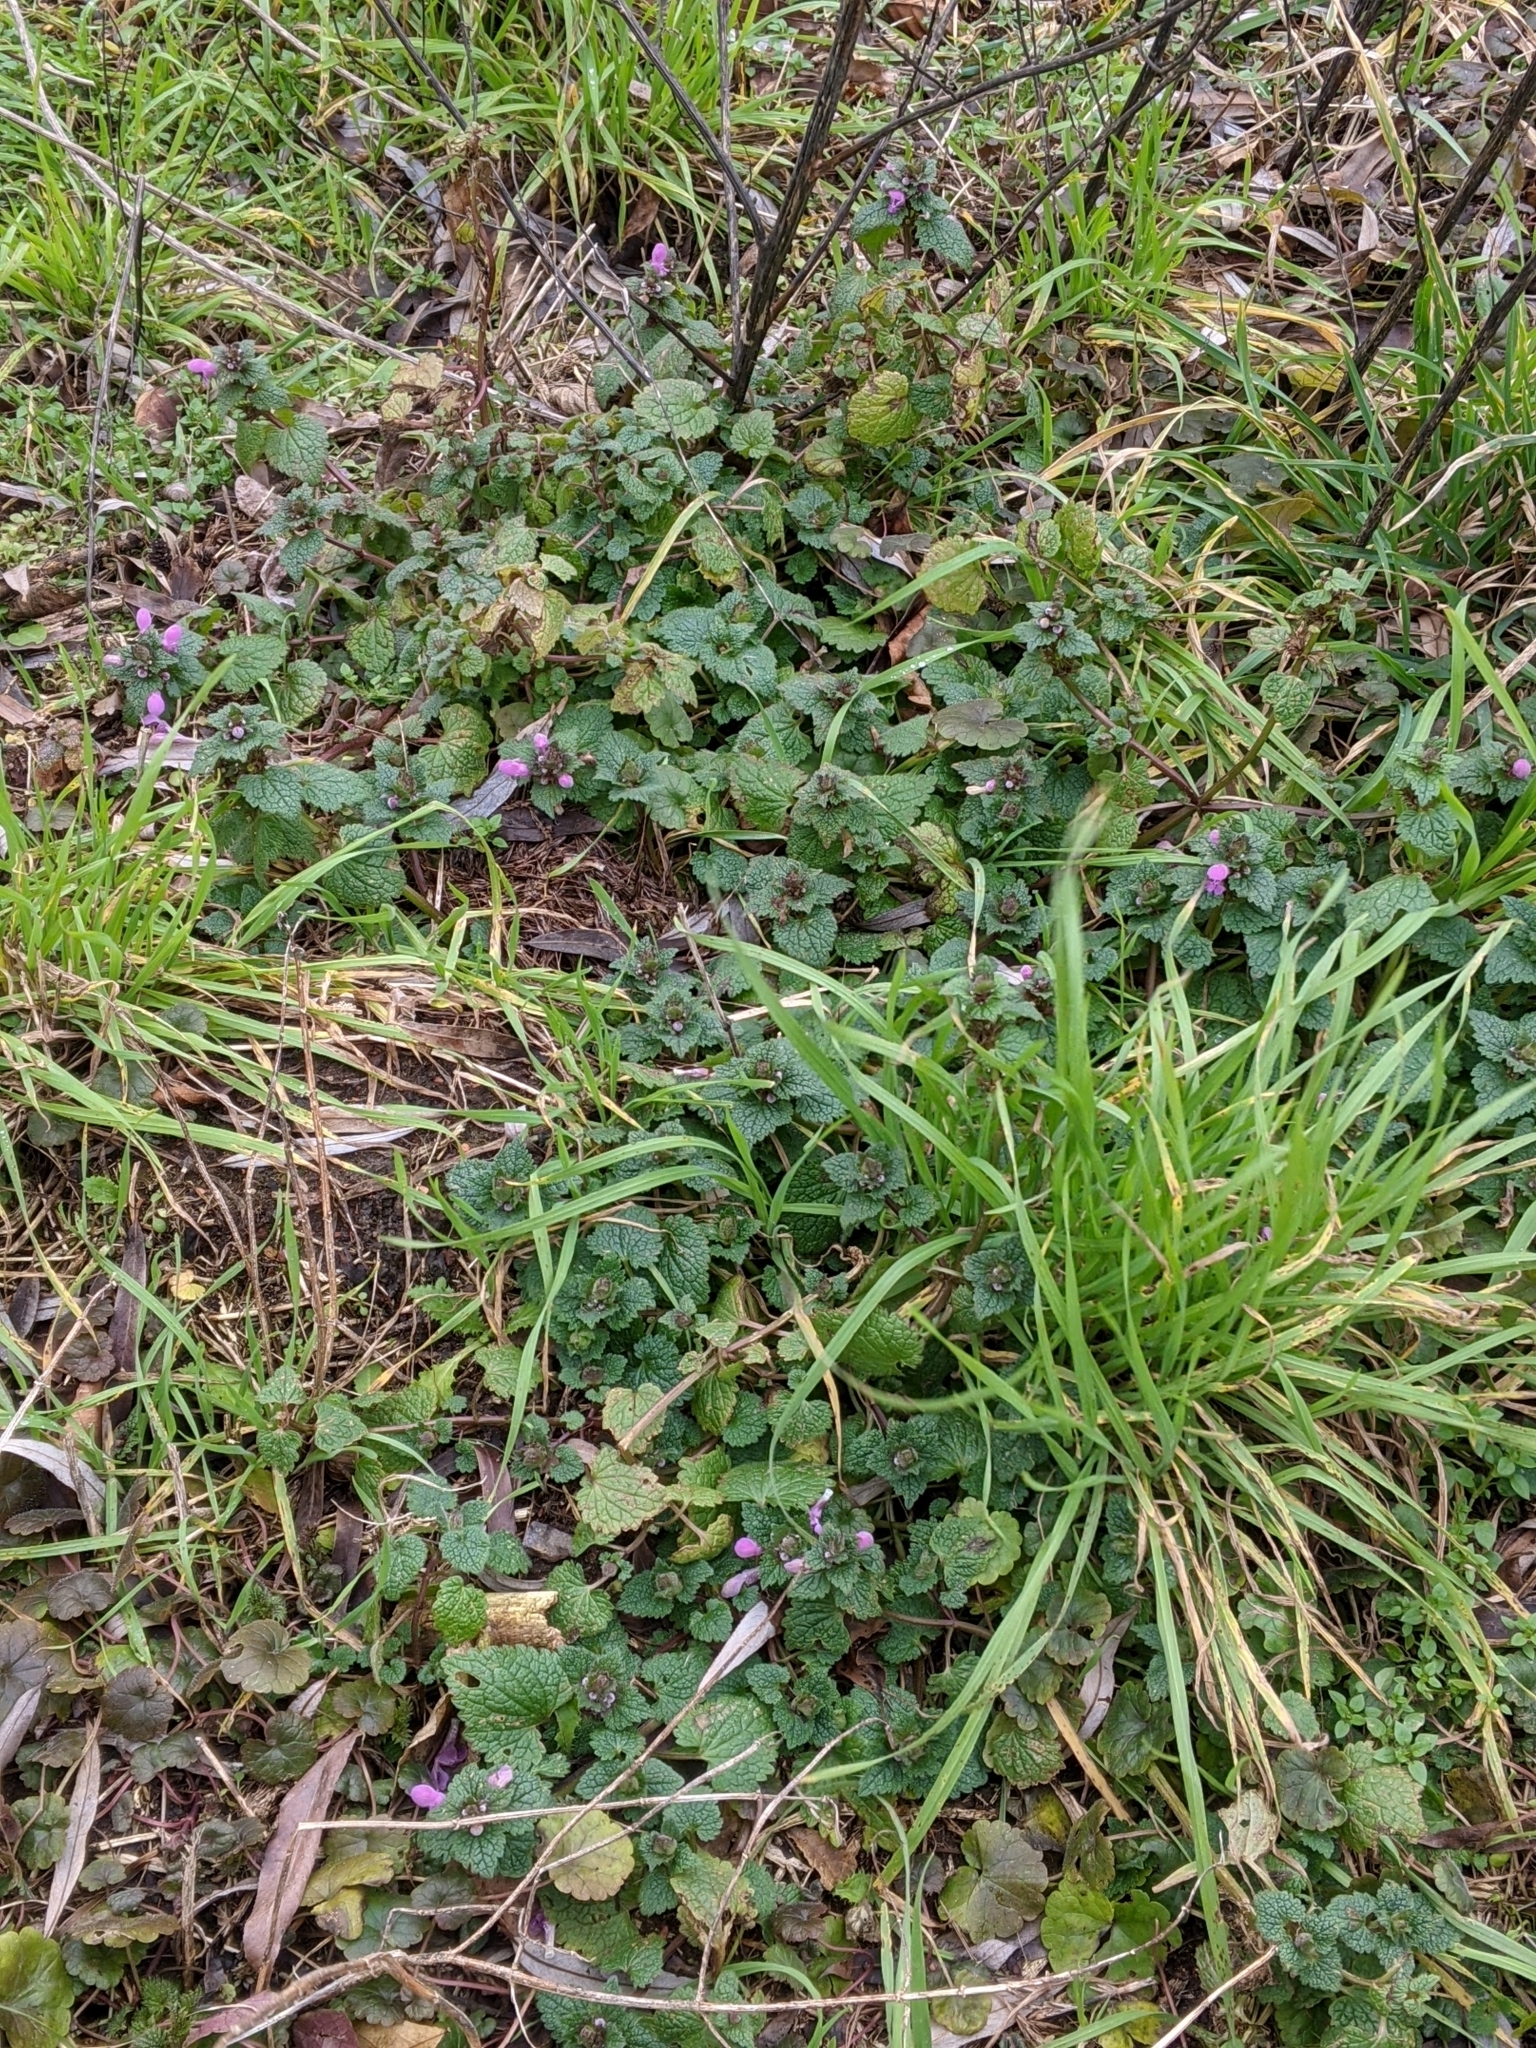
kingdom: Plantae
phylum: Tracheophyta
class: Magnoliopsida
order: Lamiales
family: Lamiaceae
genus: Lamium
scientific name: Lamium purpureum
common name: Red dead-nettle
